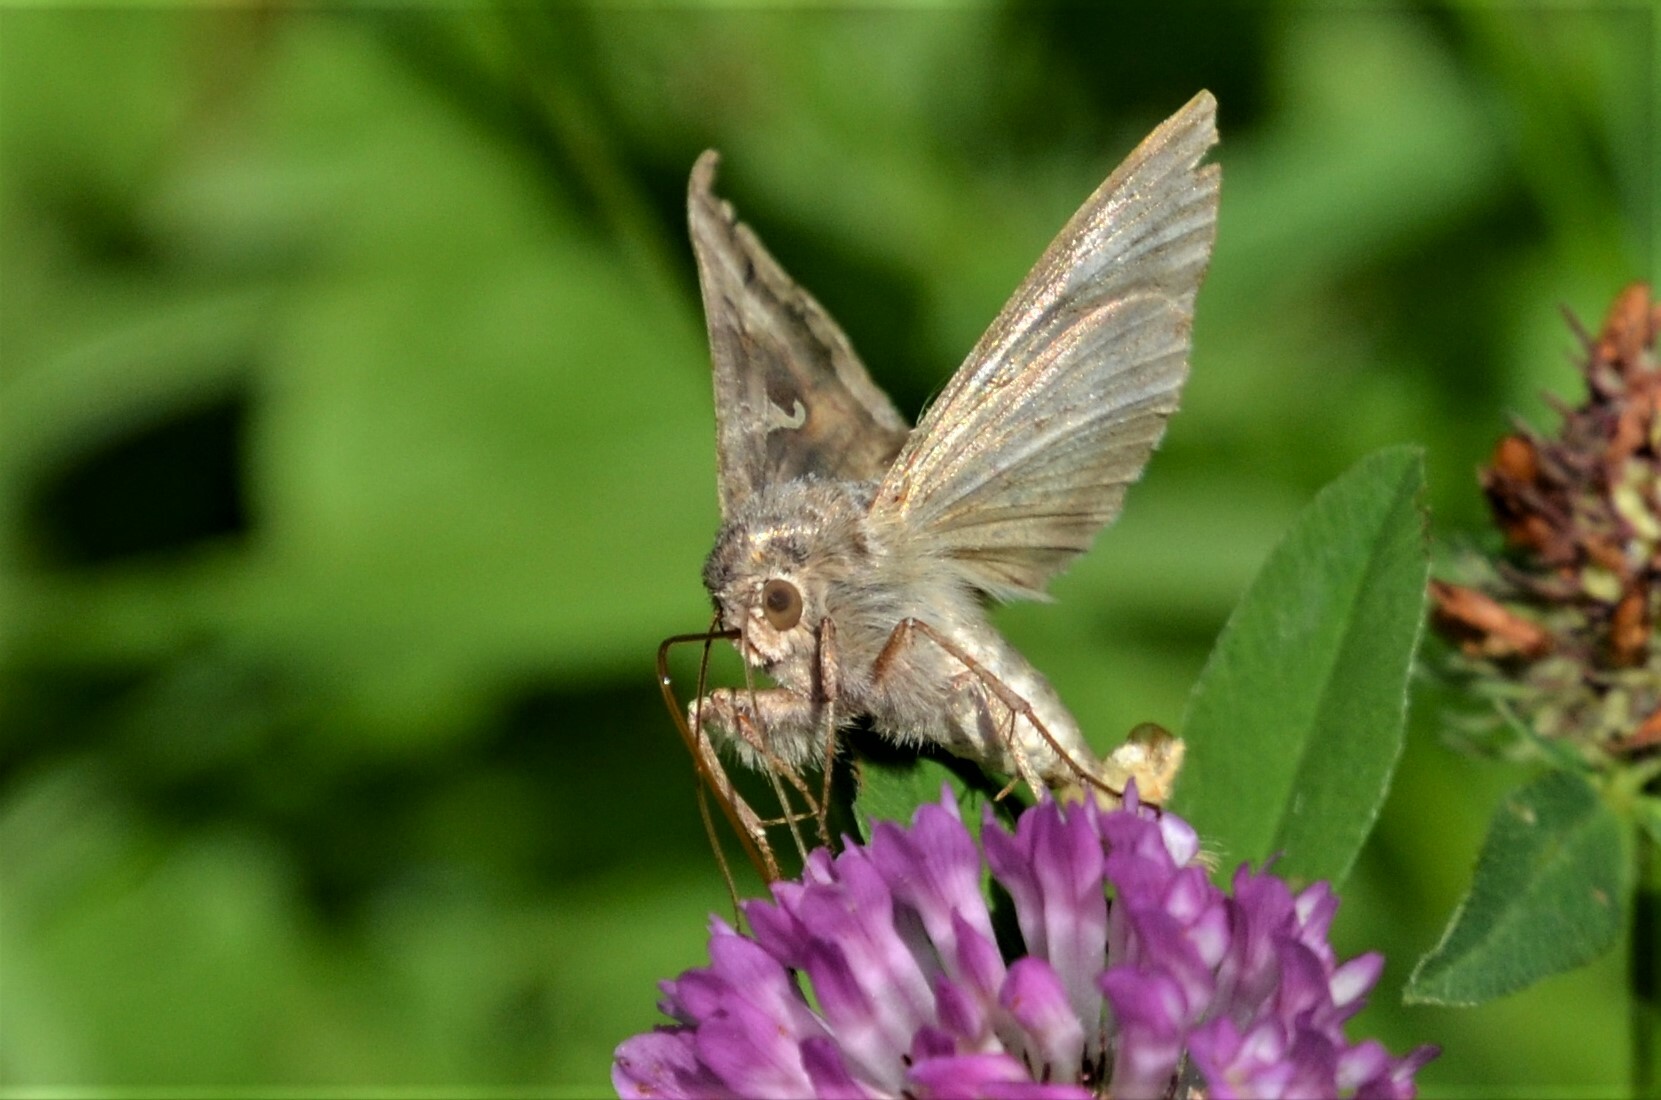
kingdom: Animalia
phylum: Arthropoda
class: Insecta
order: Lepidoptera
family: Noctuidae
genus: Autographa
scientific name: Autographa gamma
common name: Silver y
